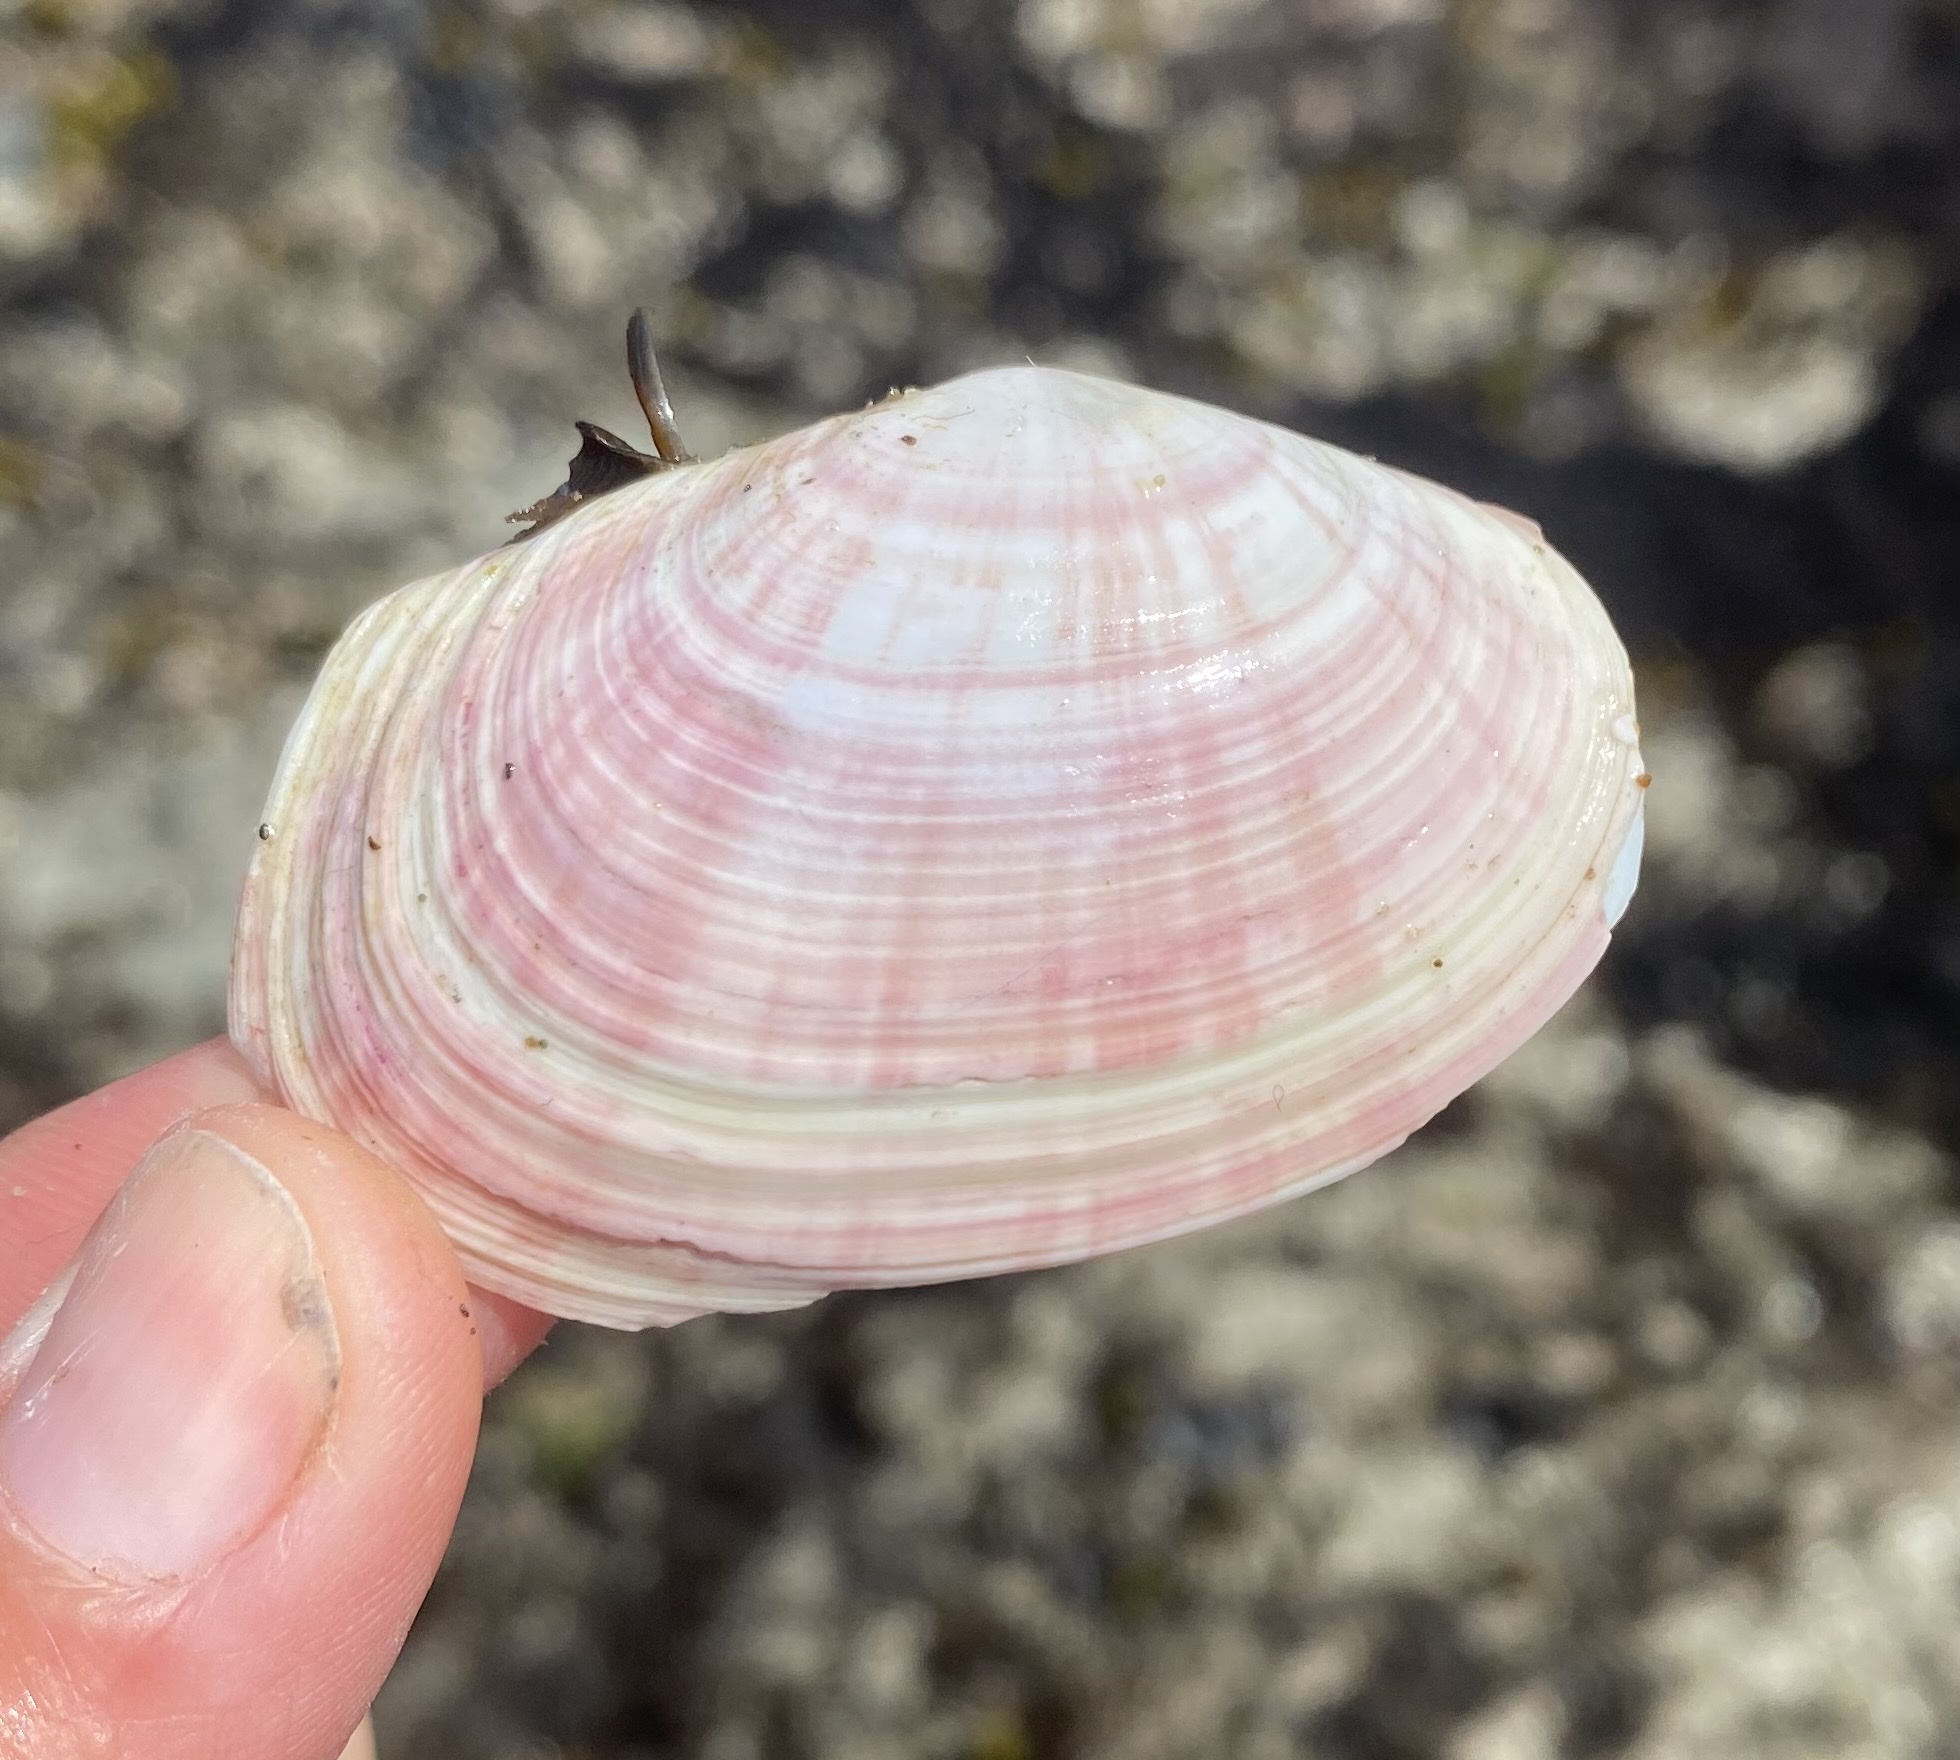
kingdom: Animalia
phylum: Mollusca
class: Bivalvia
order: Cardiida
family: Psammobiidae
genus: Gari
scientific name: Gari californica
